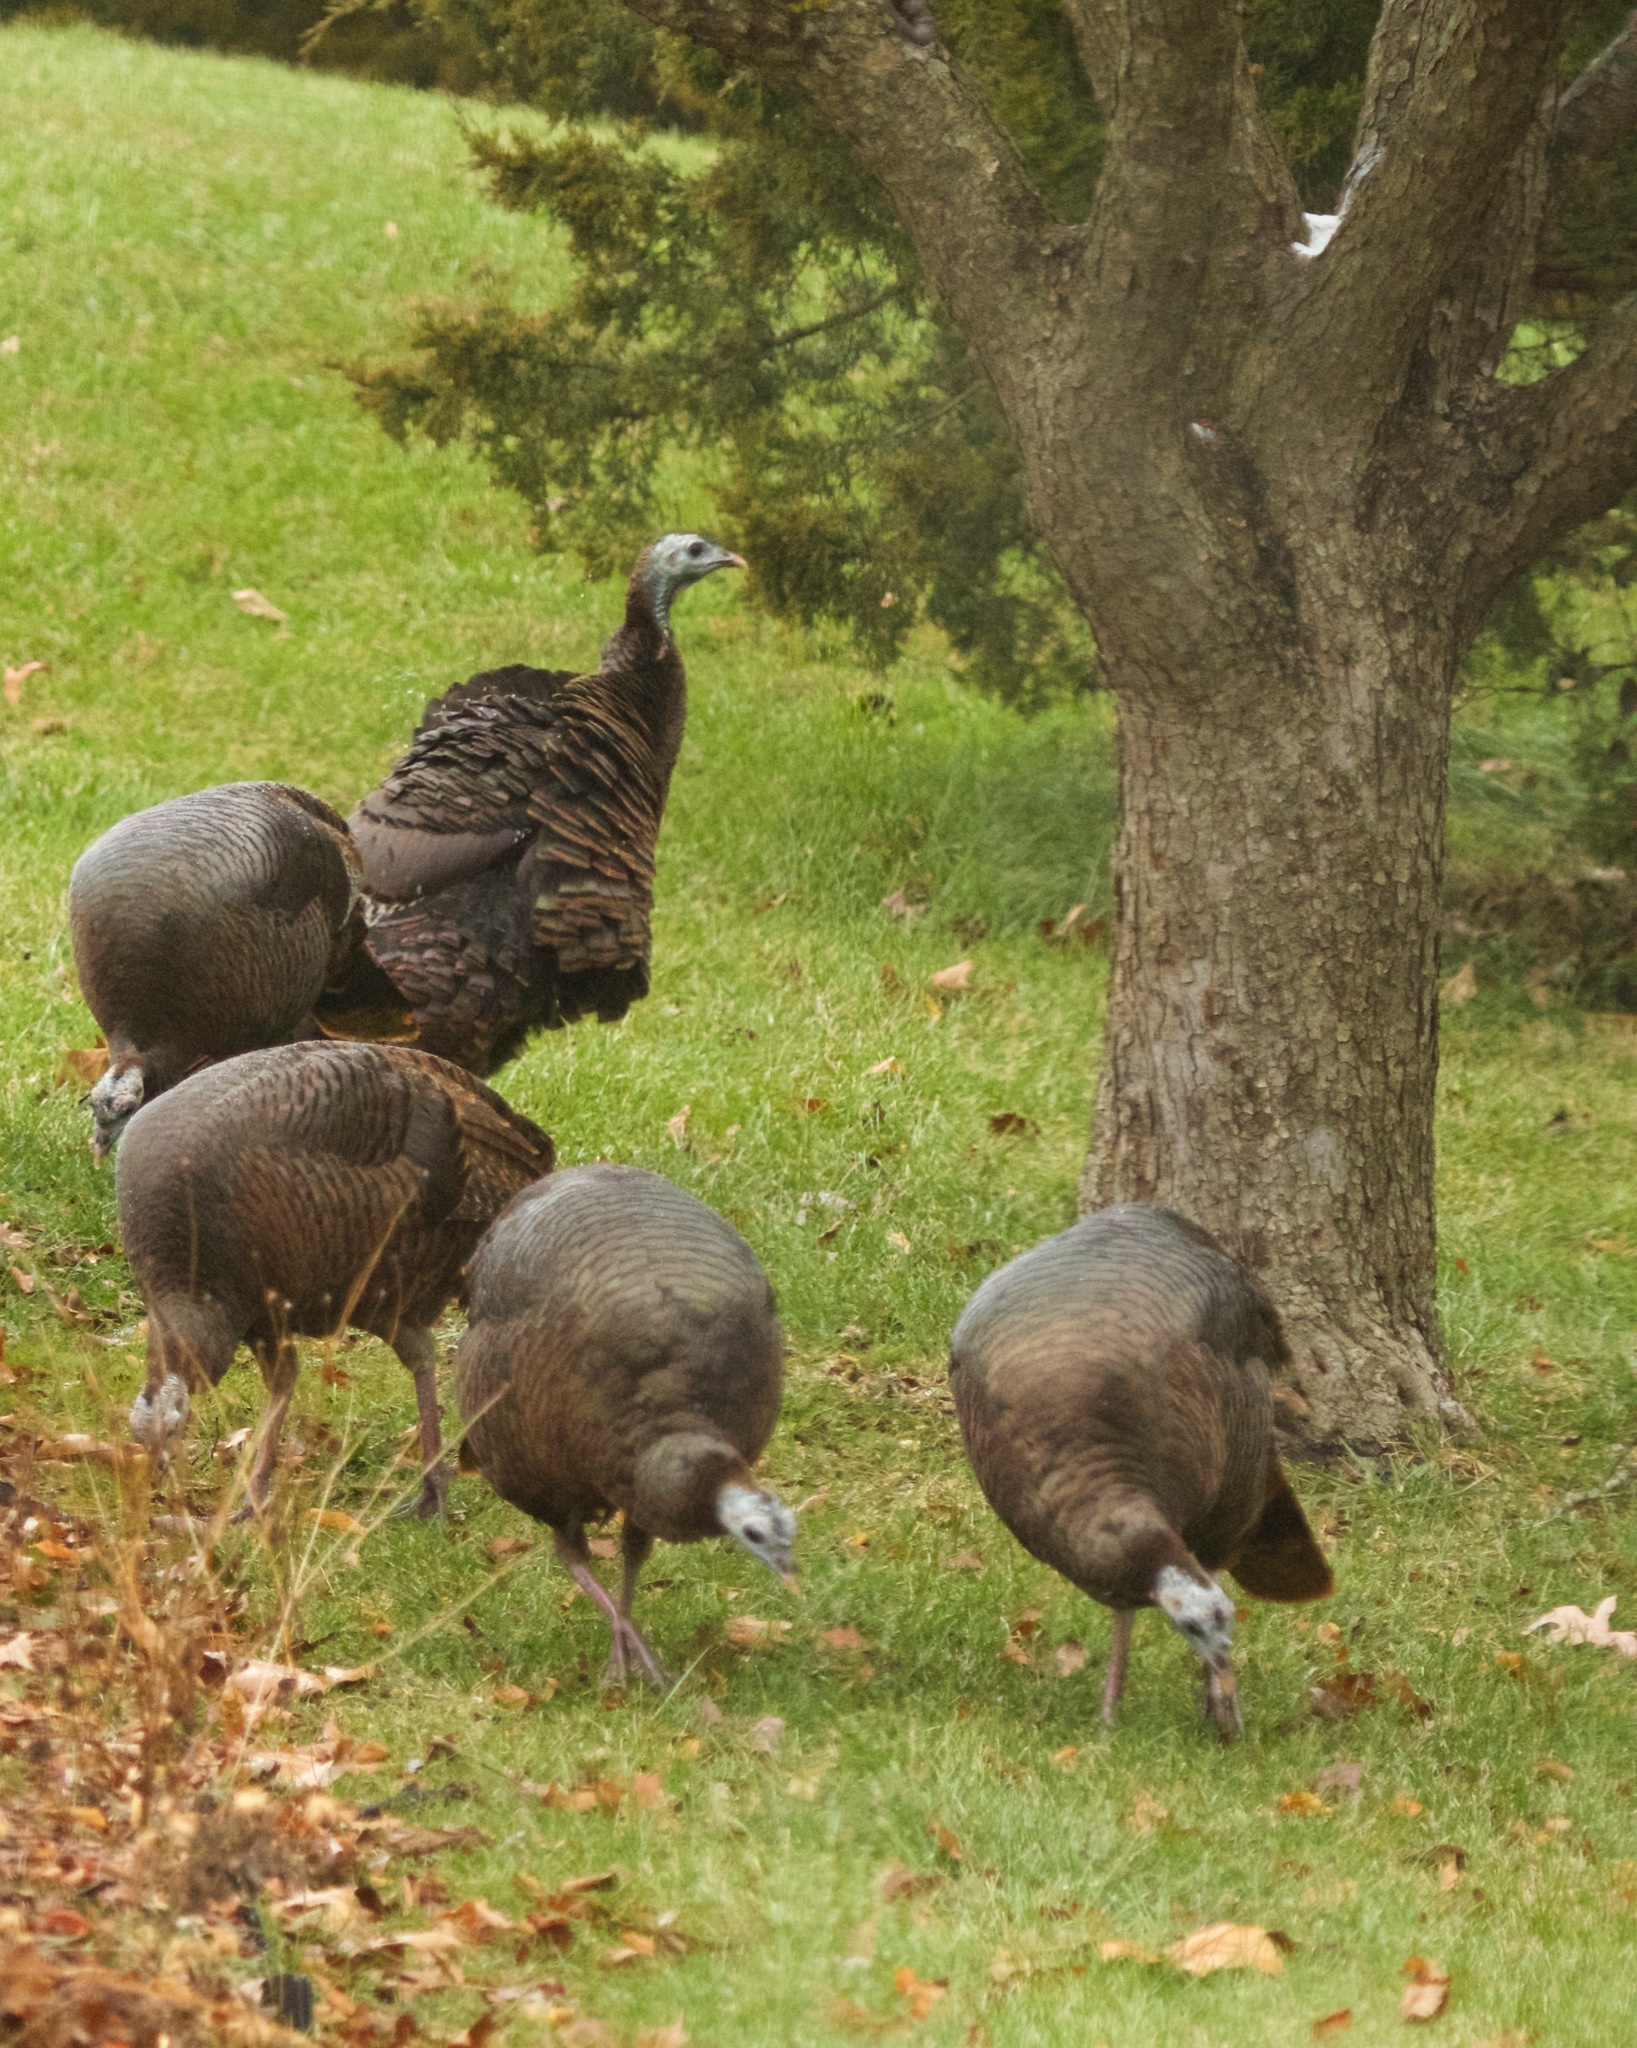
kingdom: Animalia
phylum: Chordata
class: Aves
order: Galliformes
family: Phasianidae
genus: Meleagris
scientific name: Meleagris gallopavo
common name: Wild turkey
